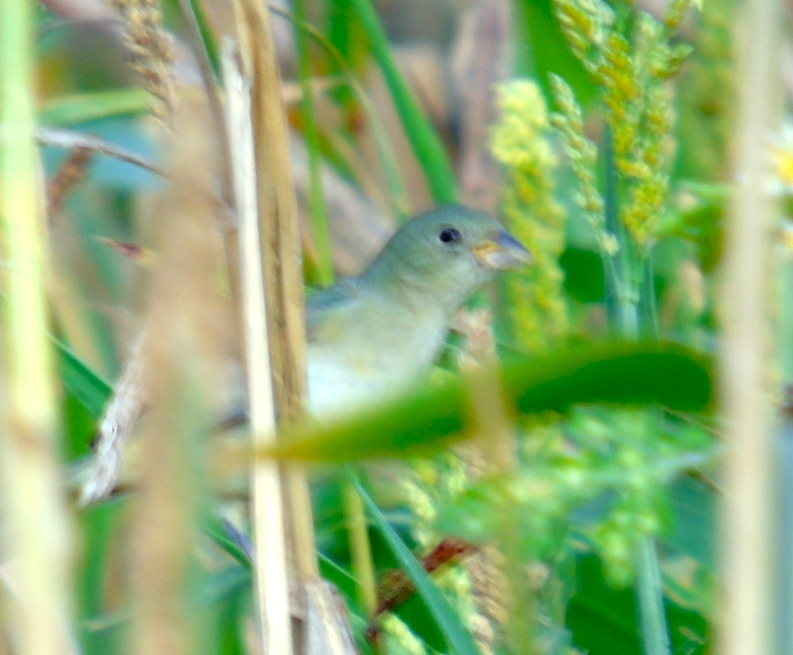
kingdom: Animalia
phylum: Chordata
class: Aves
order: Passeriformes
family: Cardinalidae
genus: Passerina
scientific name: Passerina ciris
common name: Painted bunting
